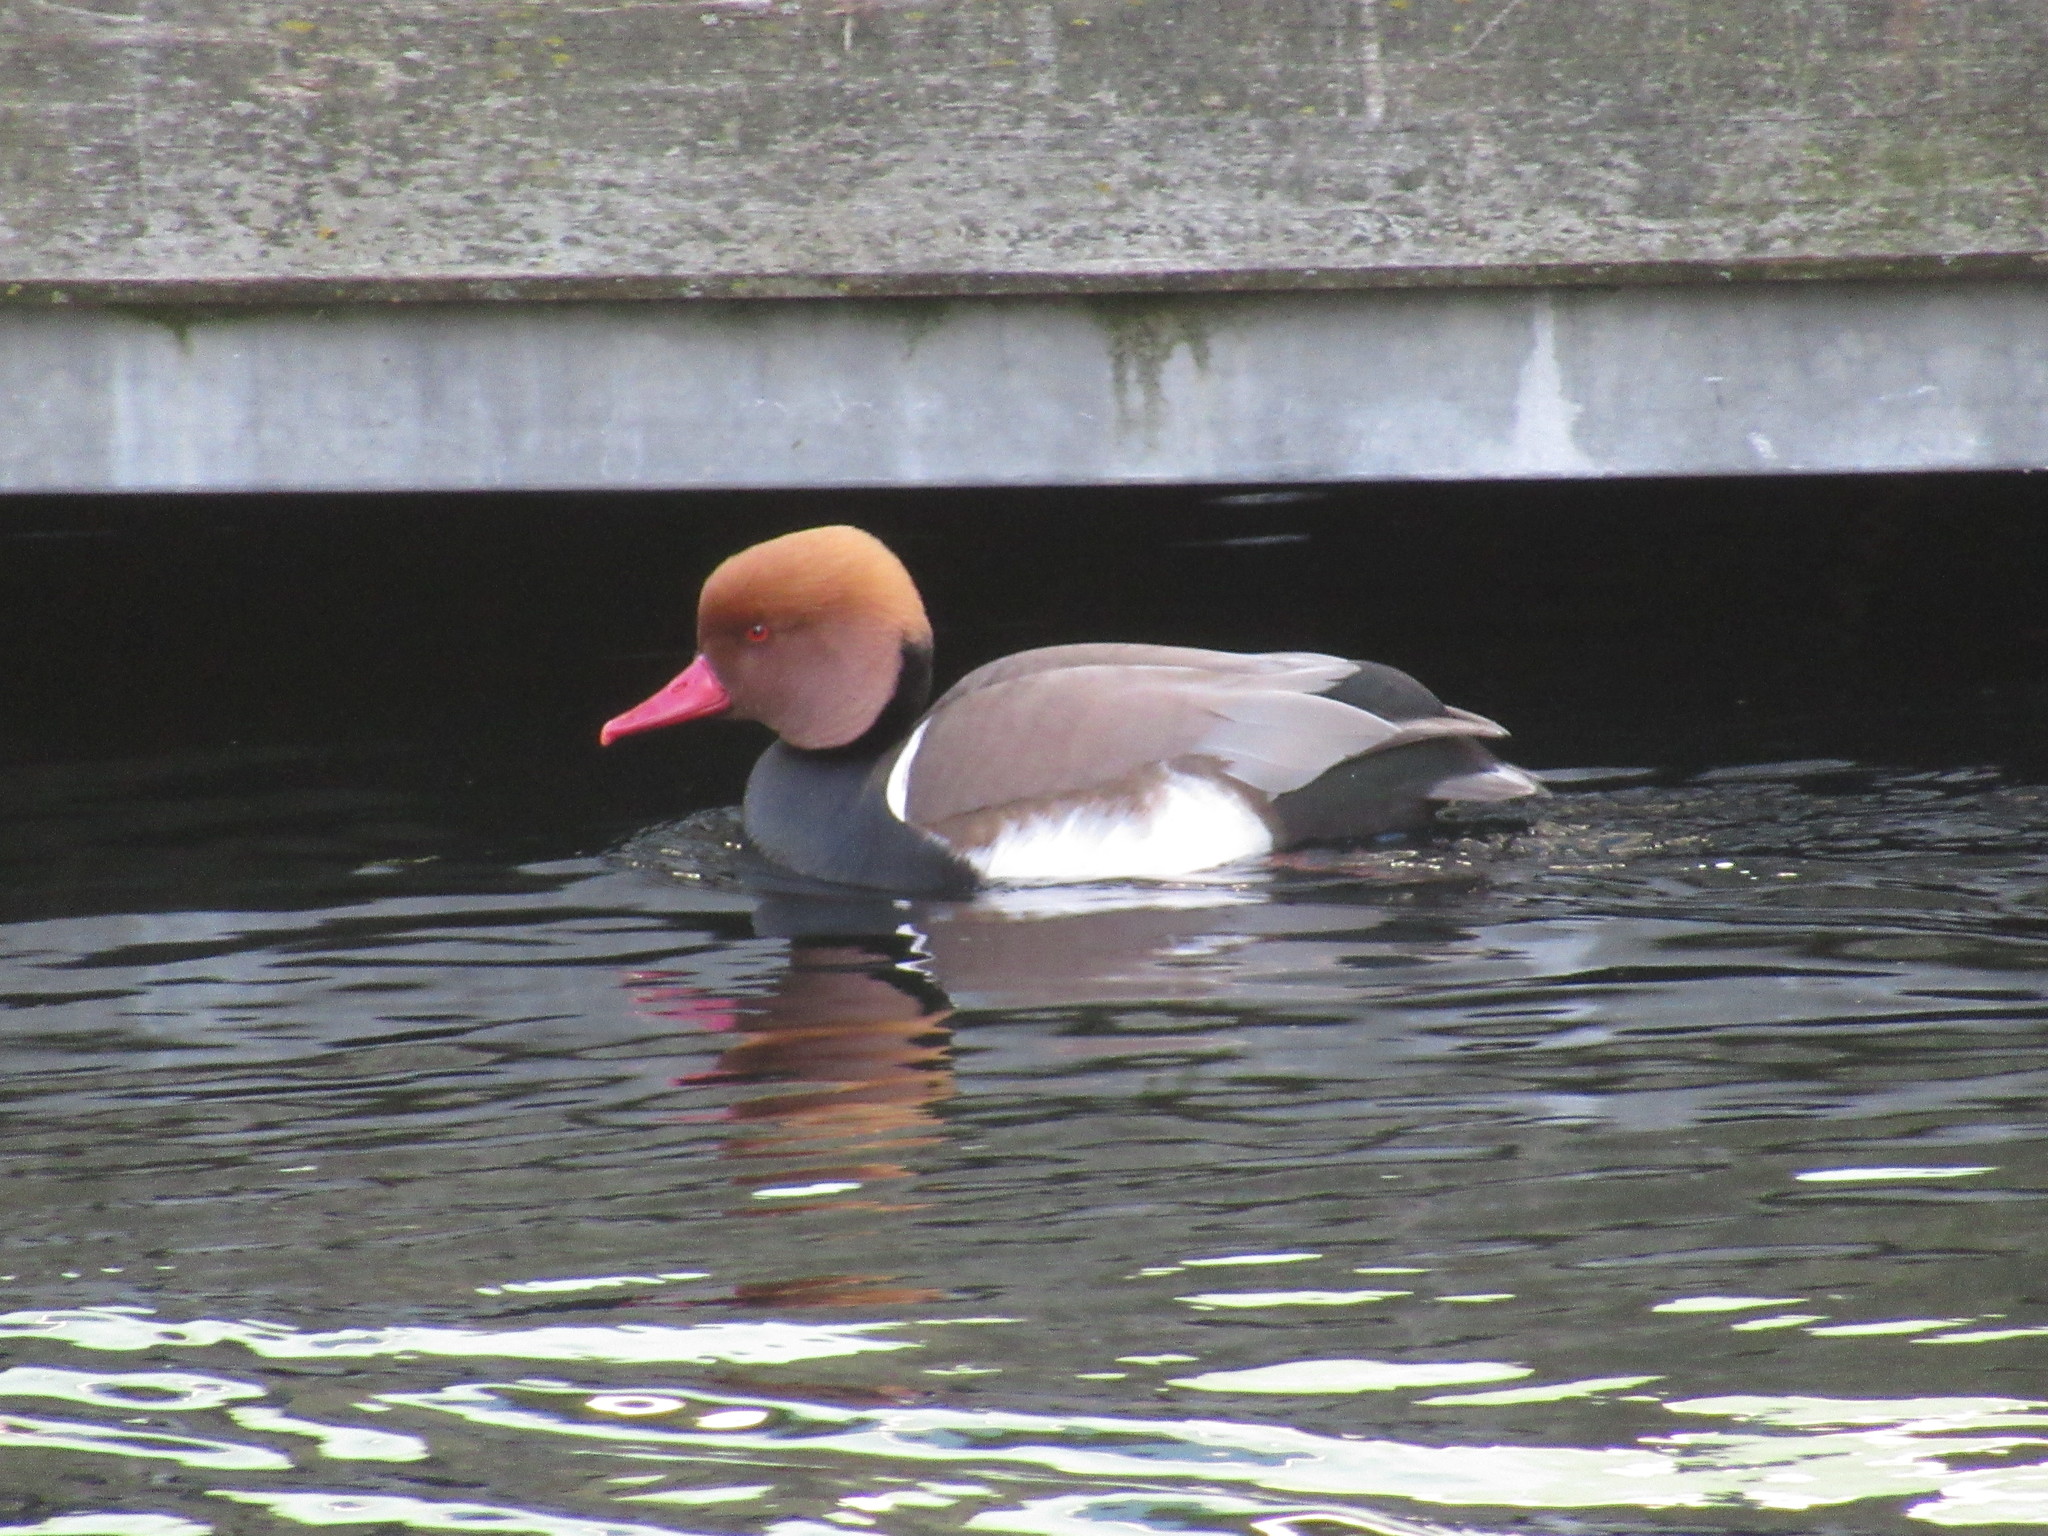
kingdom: Animalia
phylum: Chordata
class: Aves
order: Anseriformes
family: Anatidae
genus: Netta
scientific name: Netta rufina
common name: Red-crested pochard
